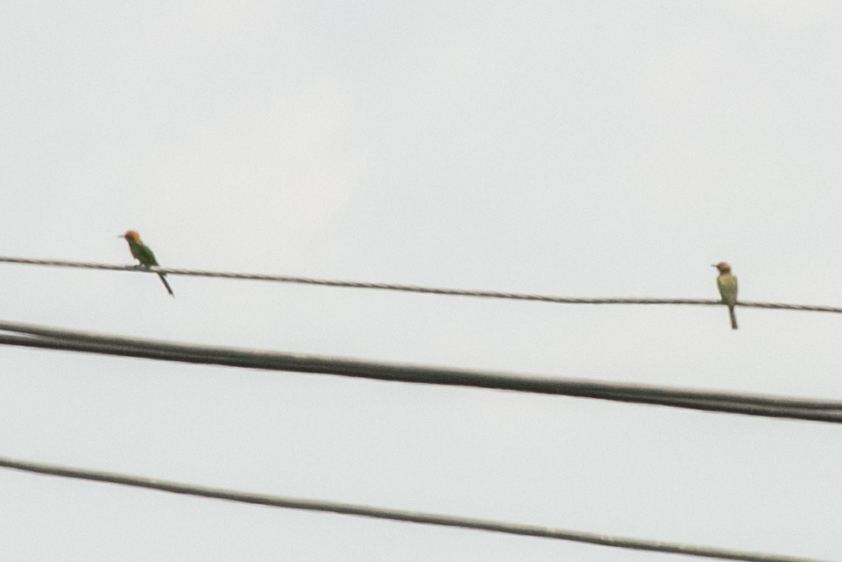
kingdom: Animalia
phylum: Chordata
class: Aves
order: Coraciiformes
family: Meropidae
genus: Merops
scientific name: Merops orientalis
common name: Green bee-eater
